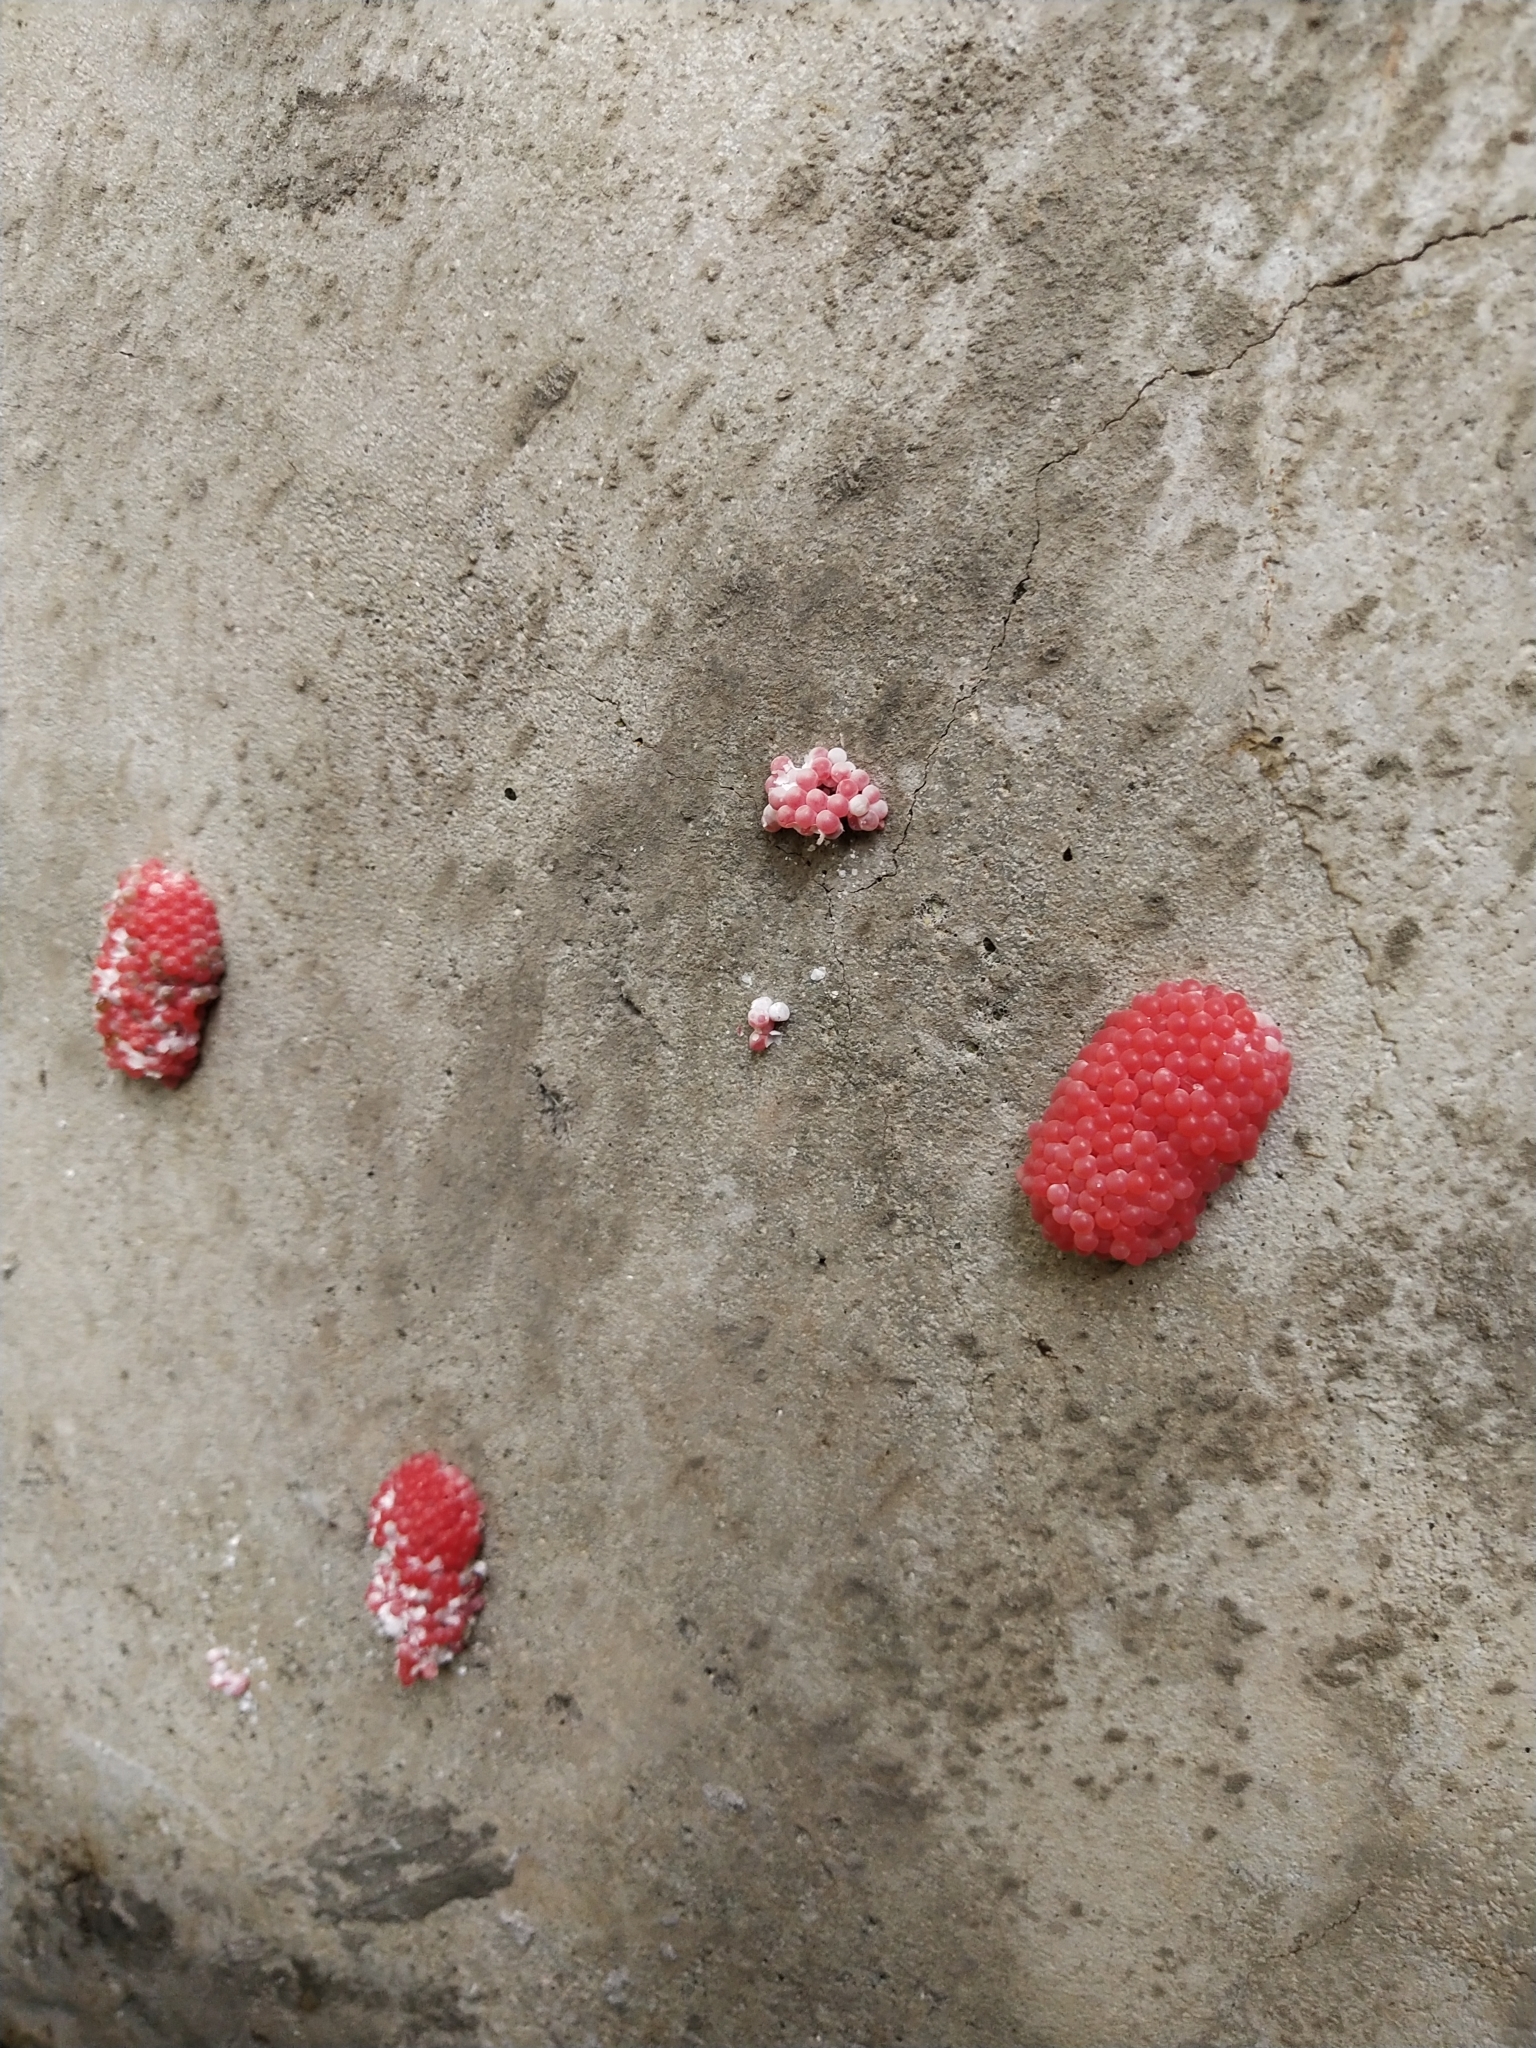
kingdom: Animalia
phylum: Mollusca
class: Gastropoda
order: Architaenioglossa
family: Ampullariidae
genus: Pomacea
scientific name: Pomacea canaliculata
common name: Channeled applesnail
